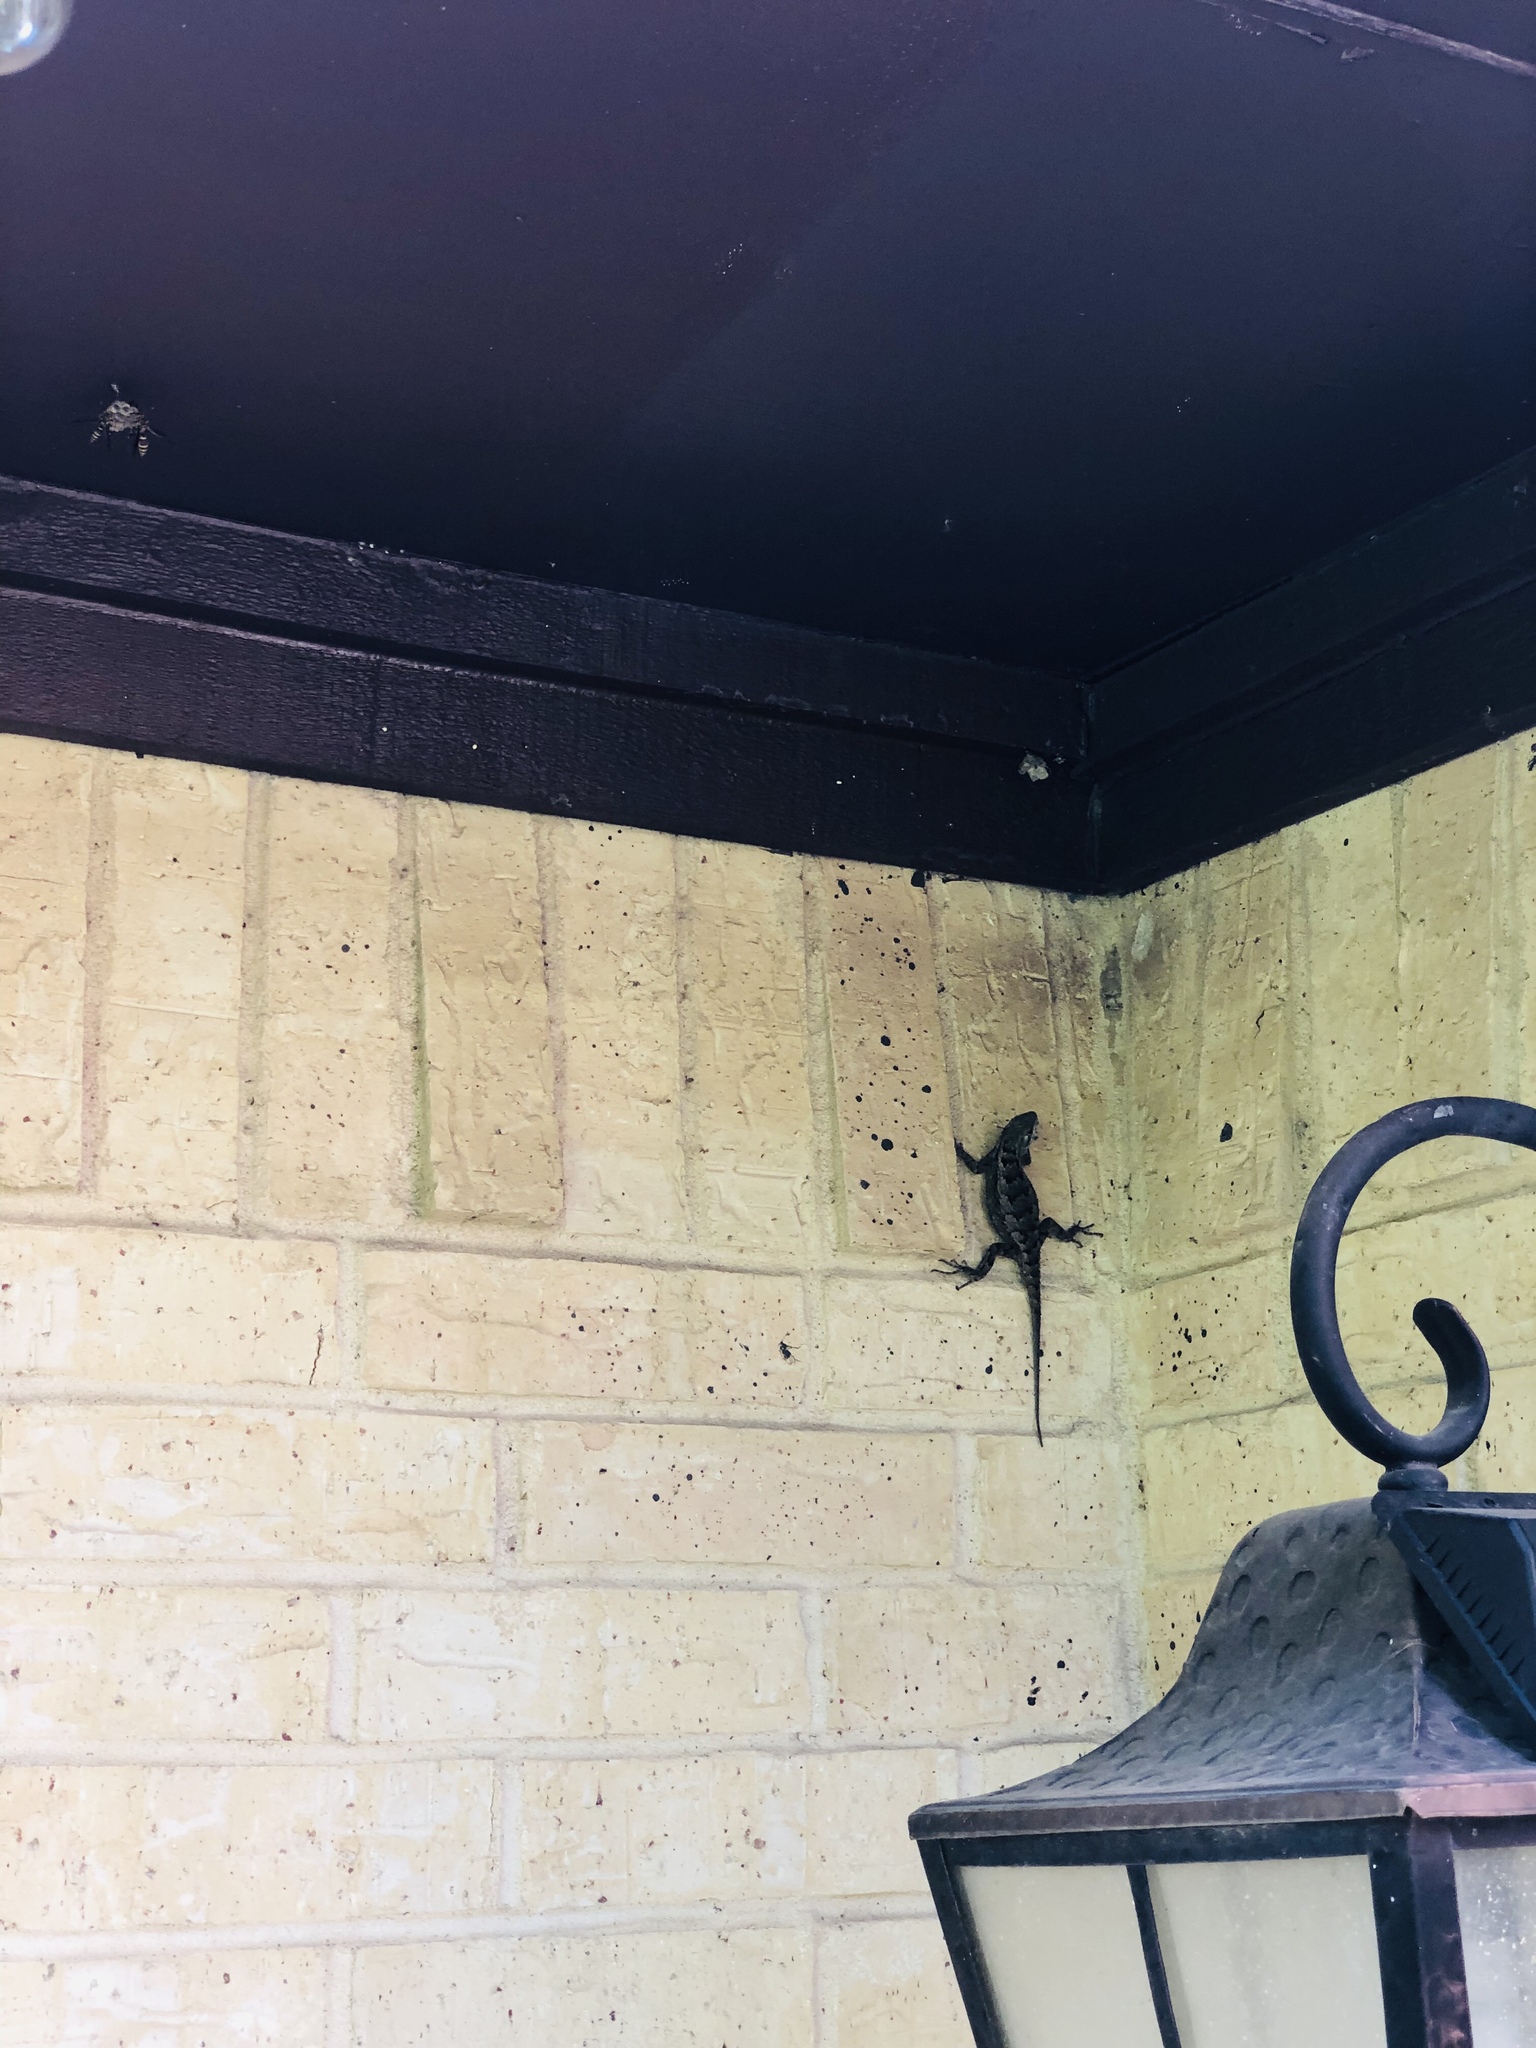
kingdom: Animalia
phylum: Chordata
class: Squamata
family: Phrynosomatidae
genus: Sceloporus
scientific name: Sceloporus olivaceus
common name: Texas spiny lizard
